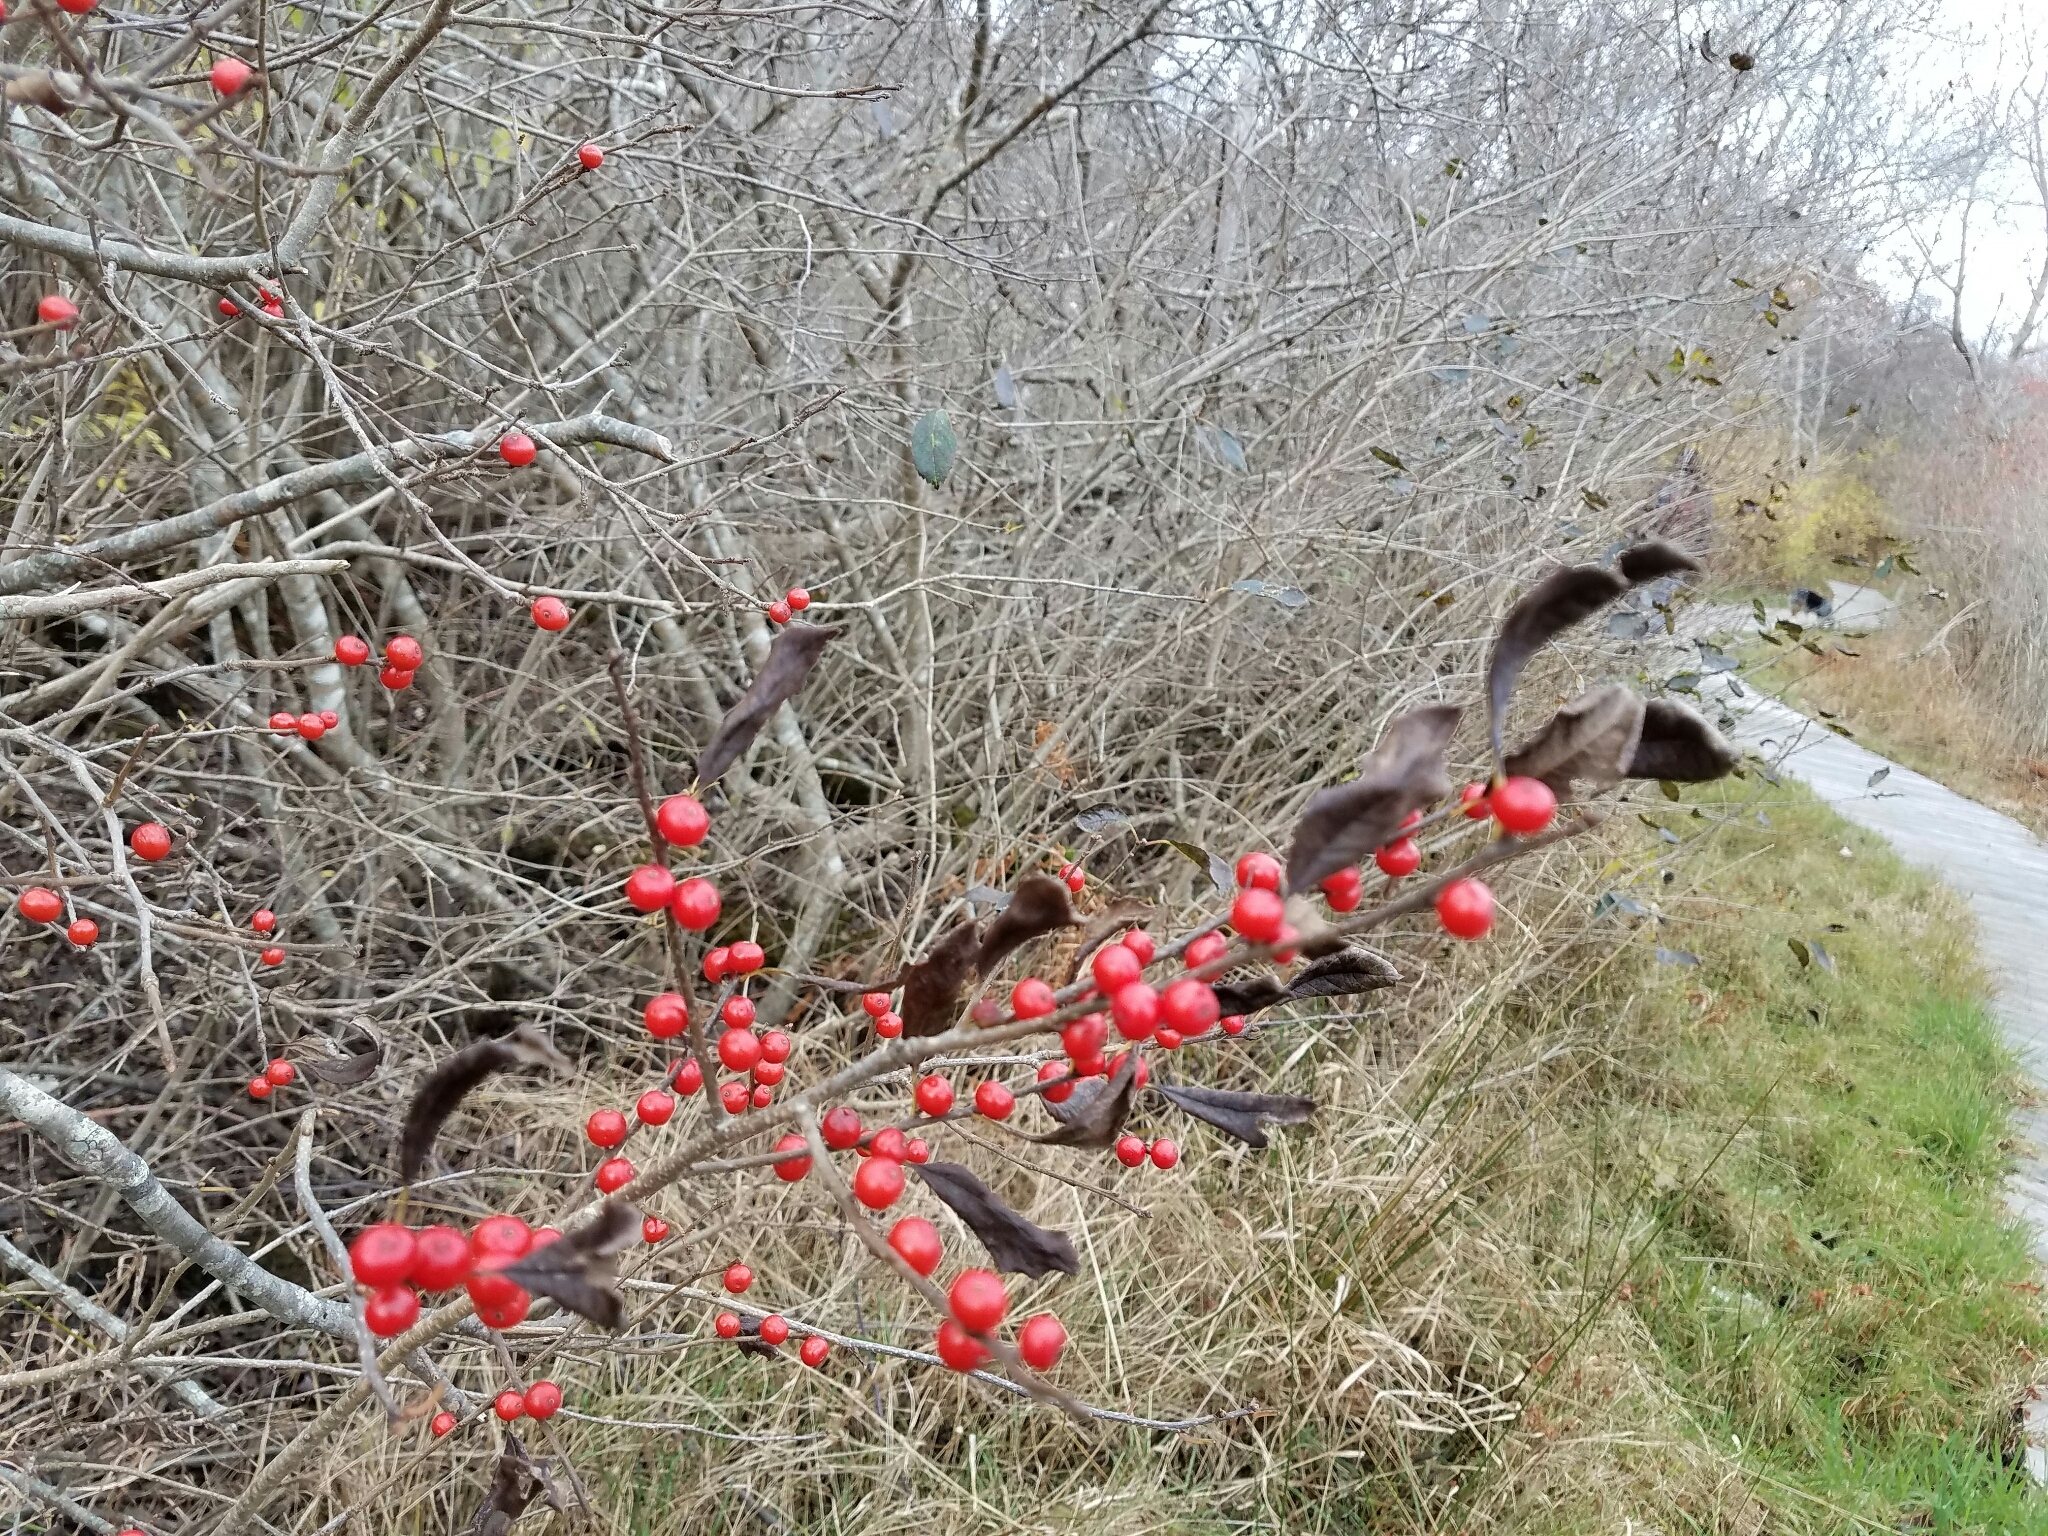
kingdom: Plantae
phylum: Tracheophyta
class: Magnoliopsida
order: Aquifoliales
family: Aquifoliaceae
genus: Ilex
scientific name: Ilex verticillata
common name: Virginia winterberry
